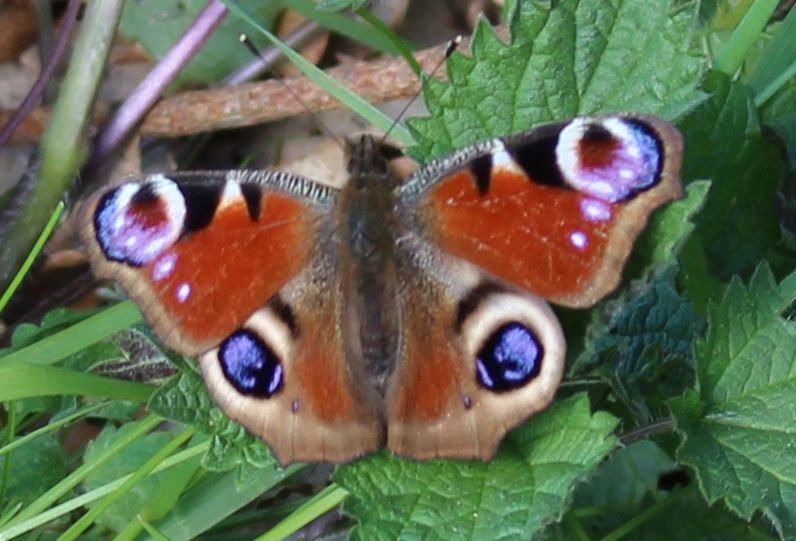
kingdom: Animalia
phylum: Arthropoda
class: Insecta
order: Lepidoptera
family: Nymphalidae
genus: Aglais
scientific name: Aglais io
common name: Peacock
